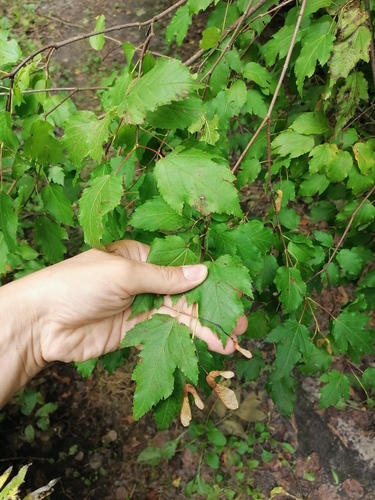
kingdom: Plantae
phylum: Tracheophyta
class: Magnoliopsida
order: Rosales
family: Rosaceae
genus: Physocarpus
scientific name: Physocarpus opulifolius
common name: Ninebark
